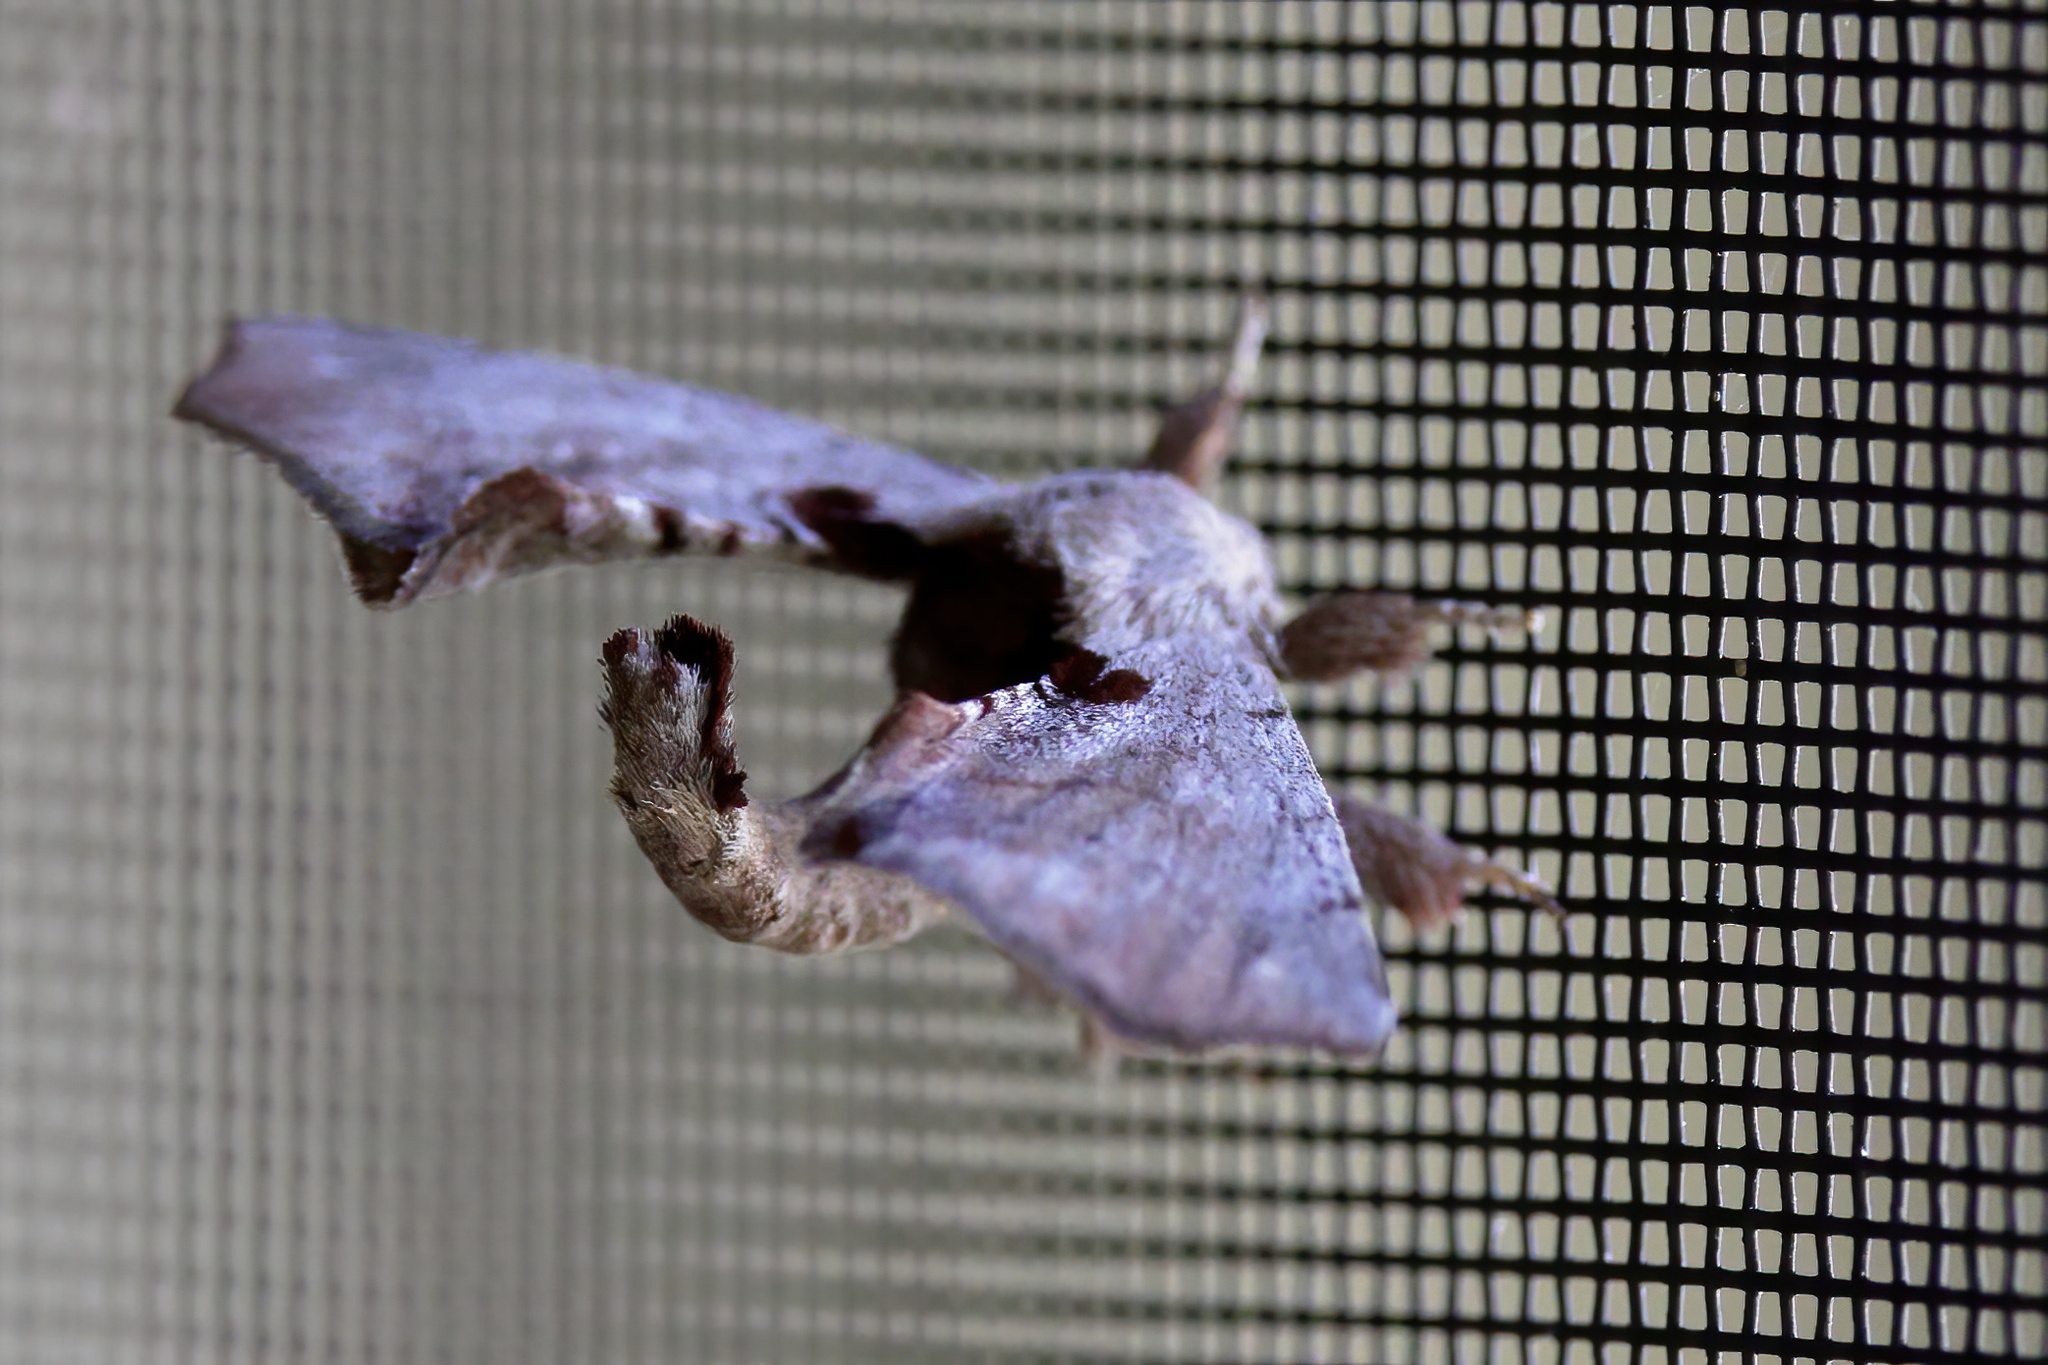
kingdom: Animalia
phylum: Arthropoda
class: Insecta
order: Lepidoptera
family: Apatelodidae
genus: Hygrochroa
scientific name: Hygrochroa Apatelodes torrefacta
